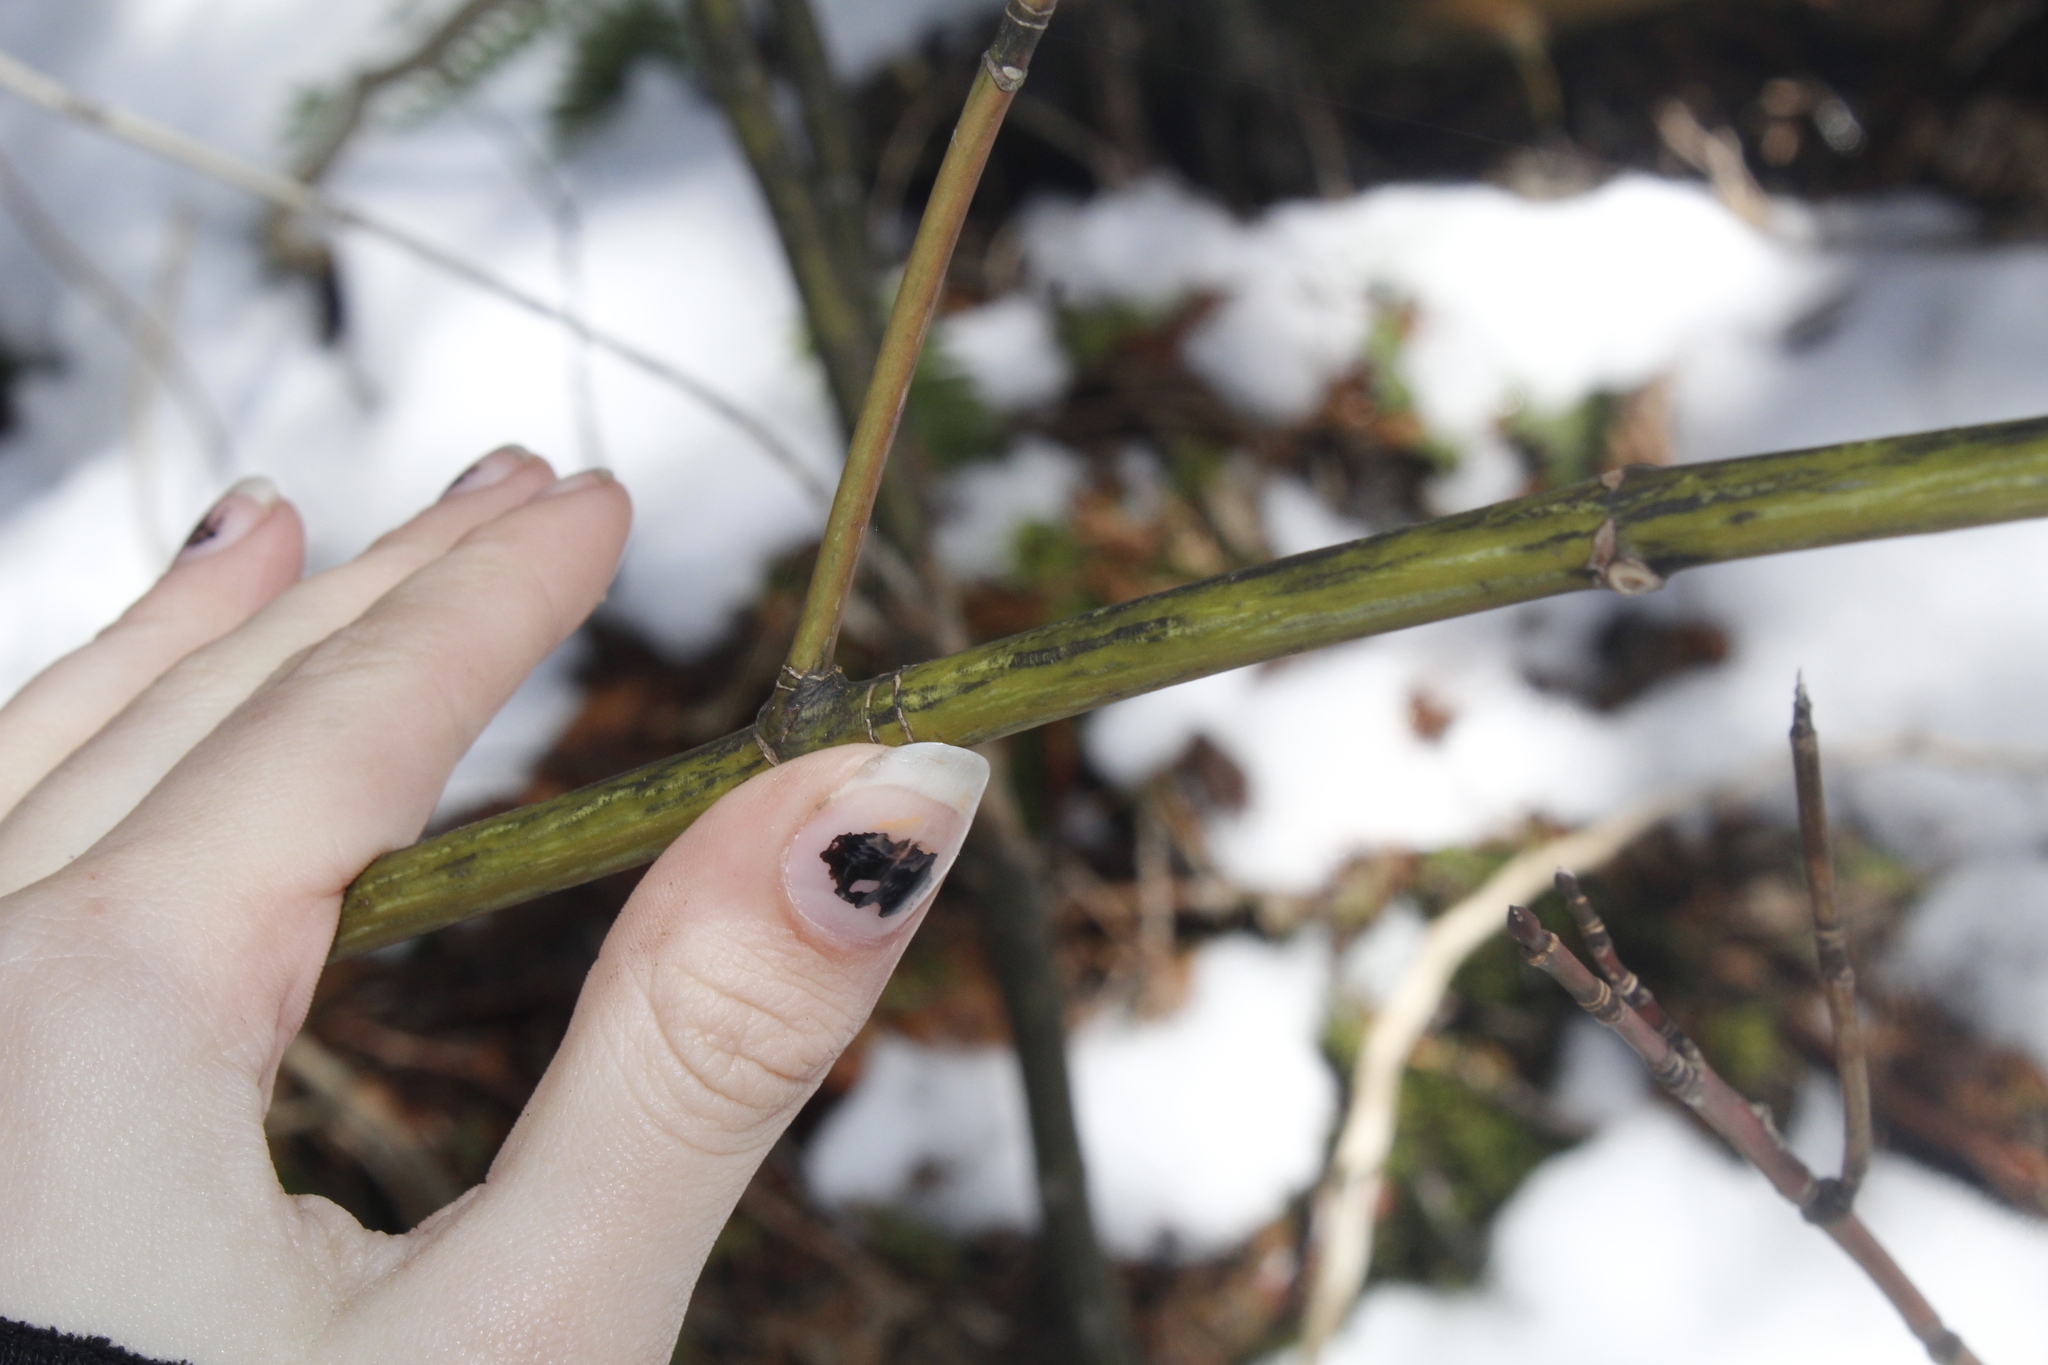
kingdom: Plantae
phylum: Tracheophyta
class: Magnoliopsida
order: Sapindales
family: Sapindaceae
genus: Acer
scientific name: Acer pensylvanicum
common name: Moosewood
